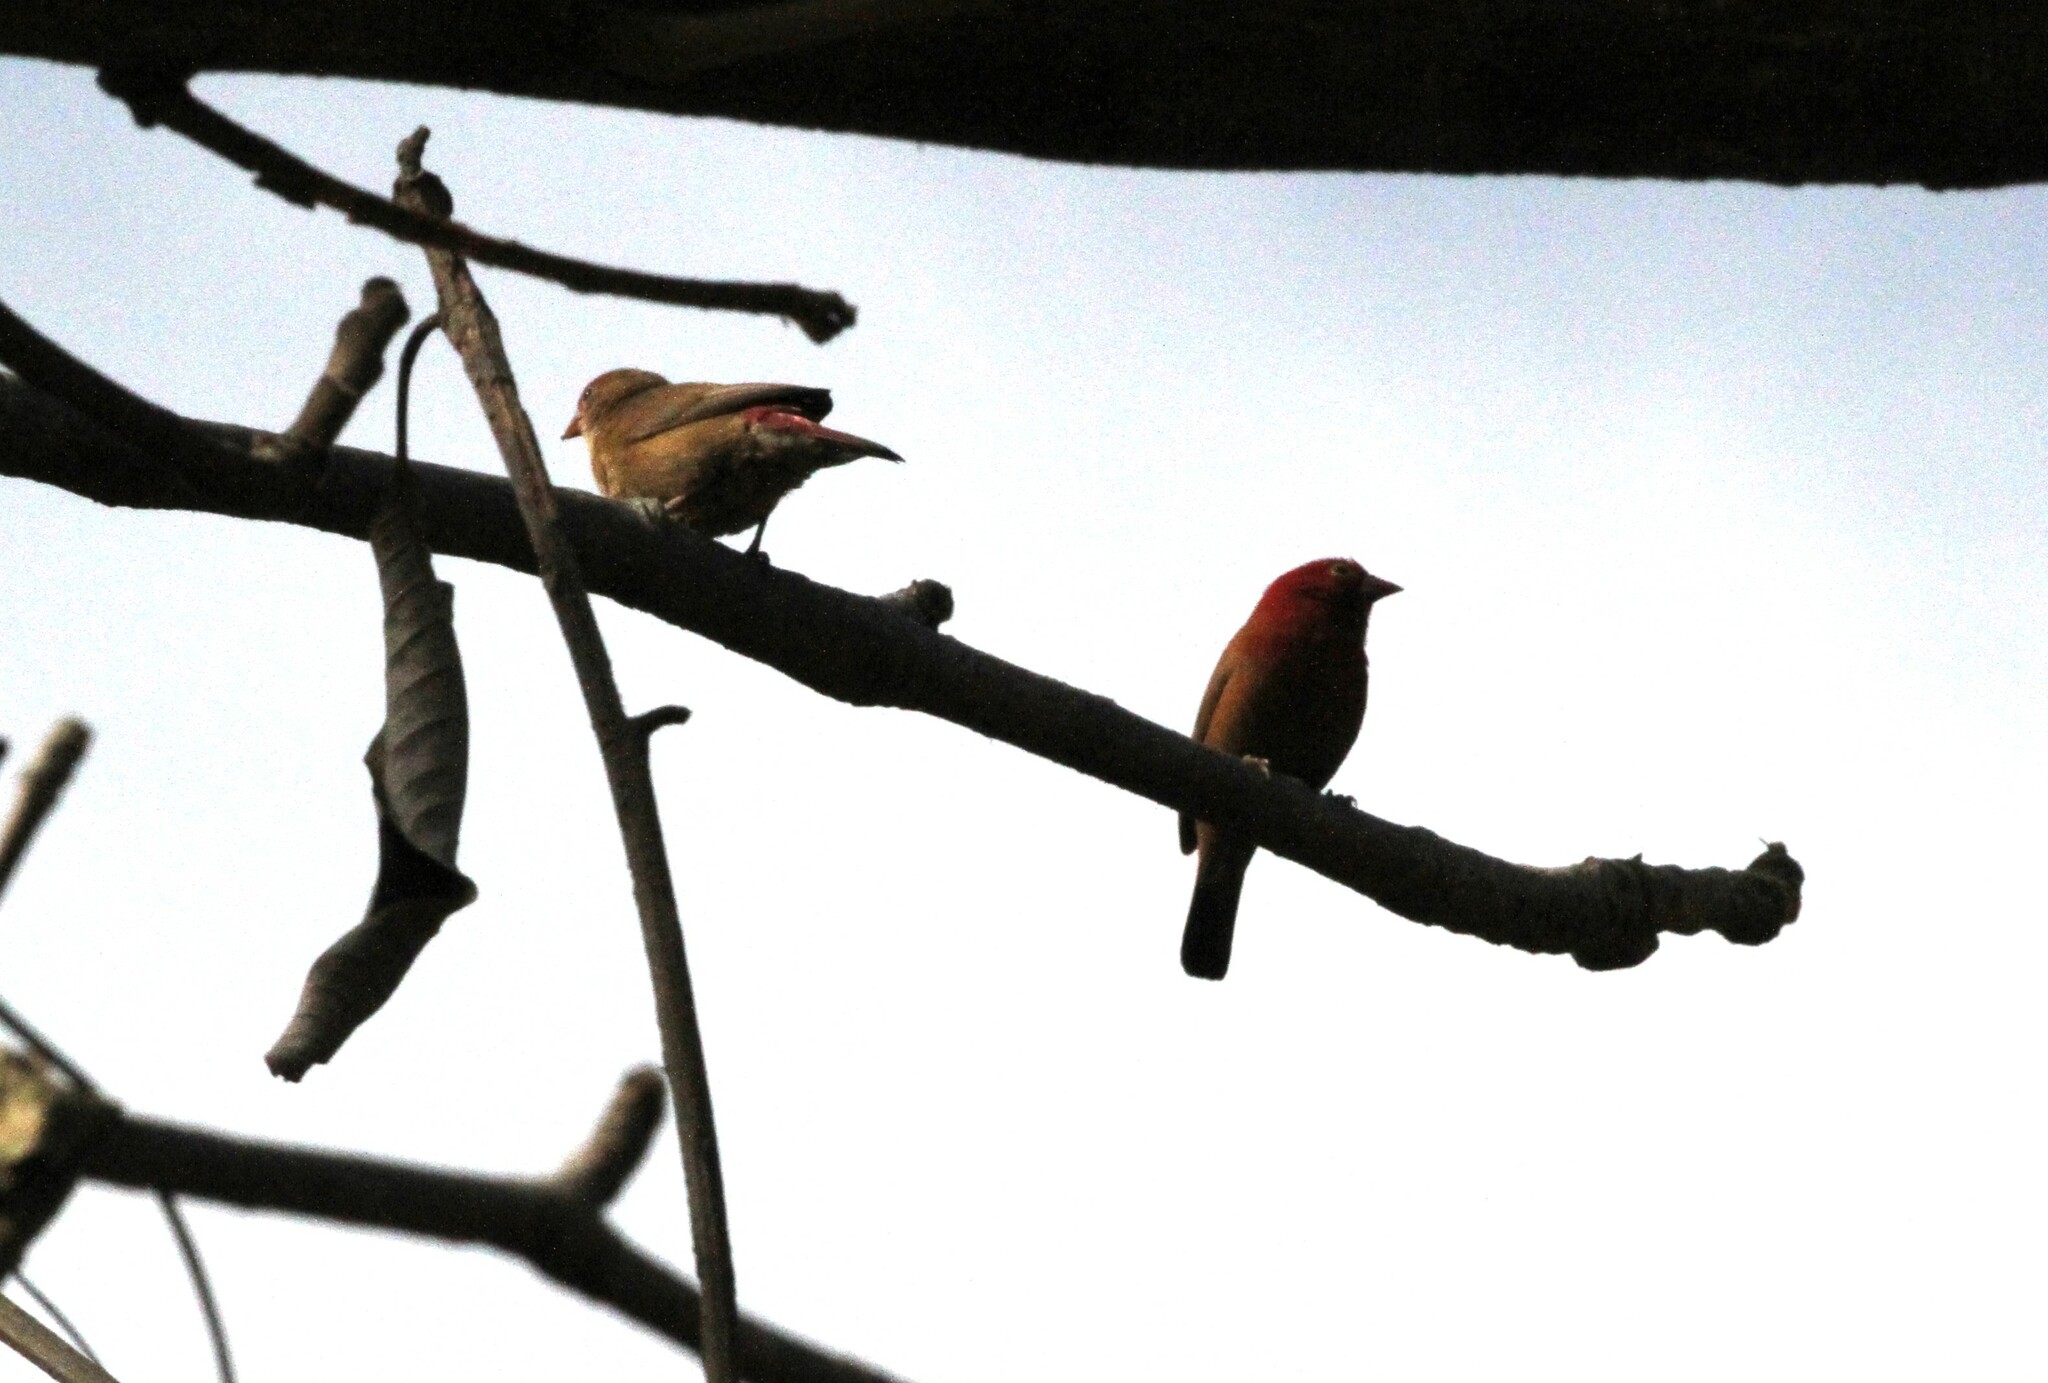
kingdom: Animalia
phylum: Chordata
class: Aves
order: Passeriformes
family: Estrildidae
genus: Lagonosticta
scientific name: Lagonosticta senegala
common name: Red-billed firefinch
